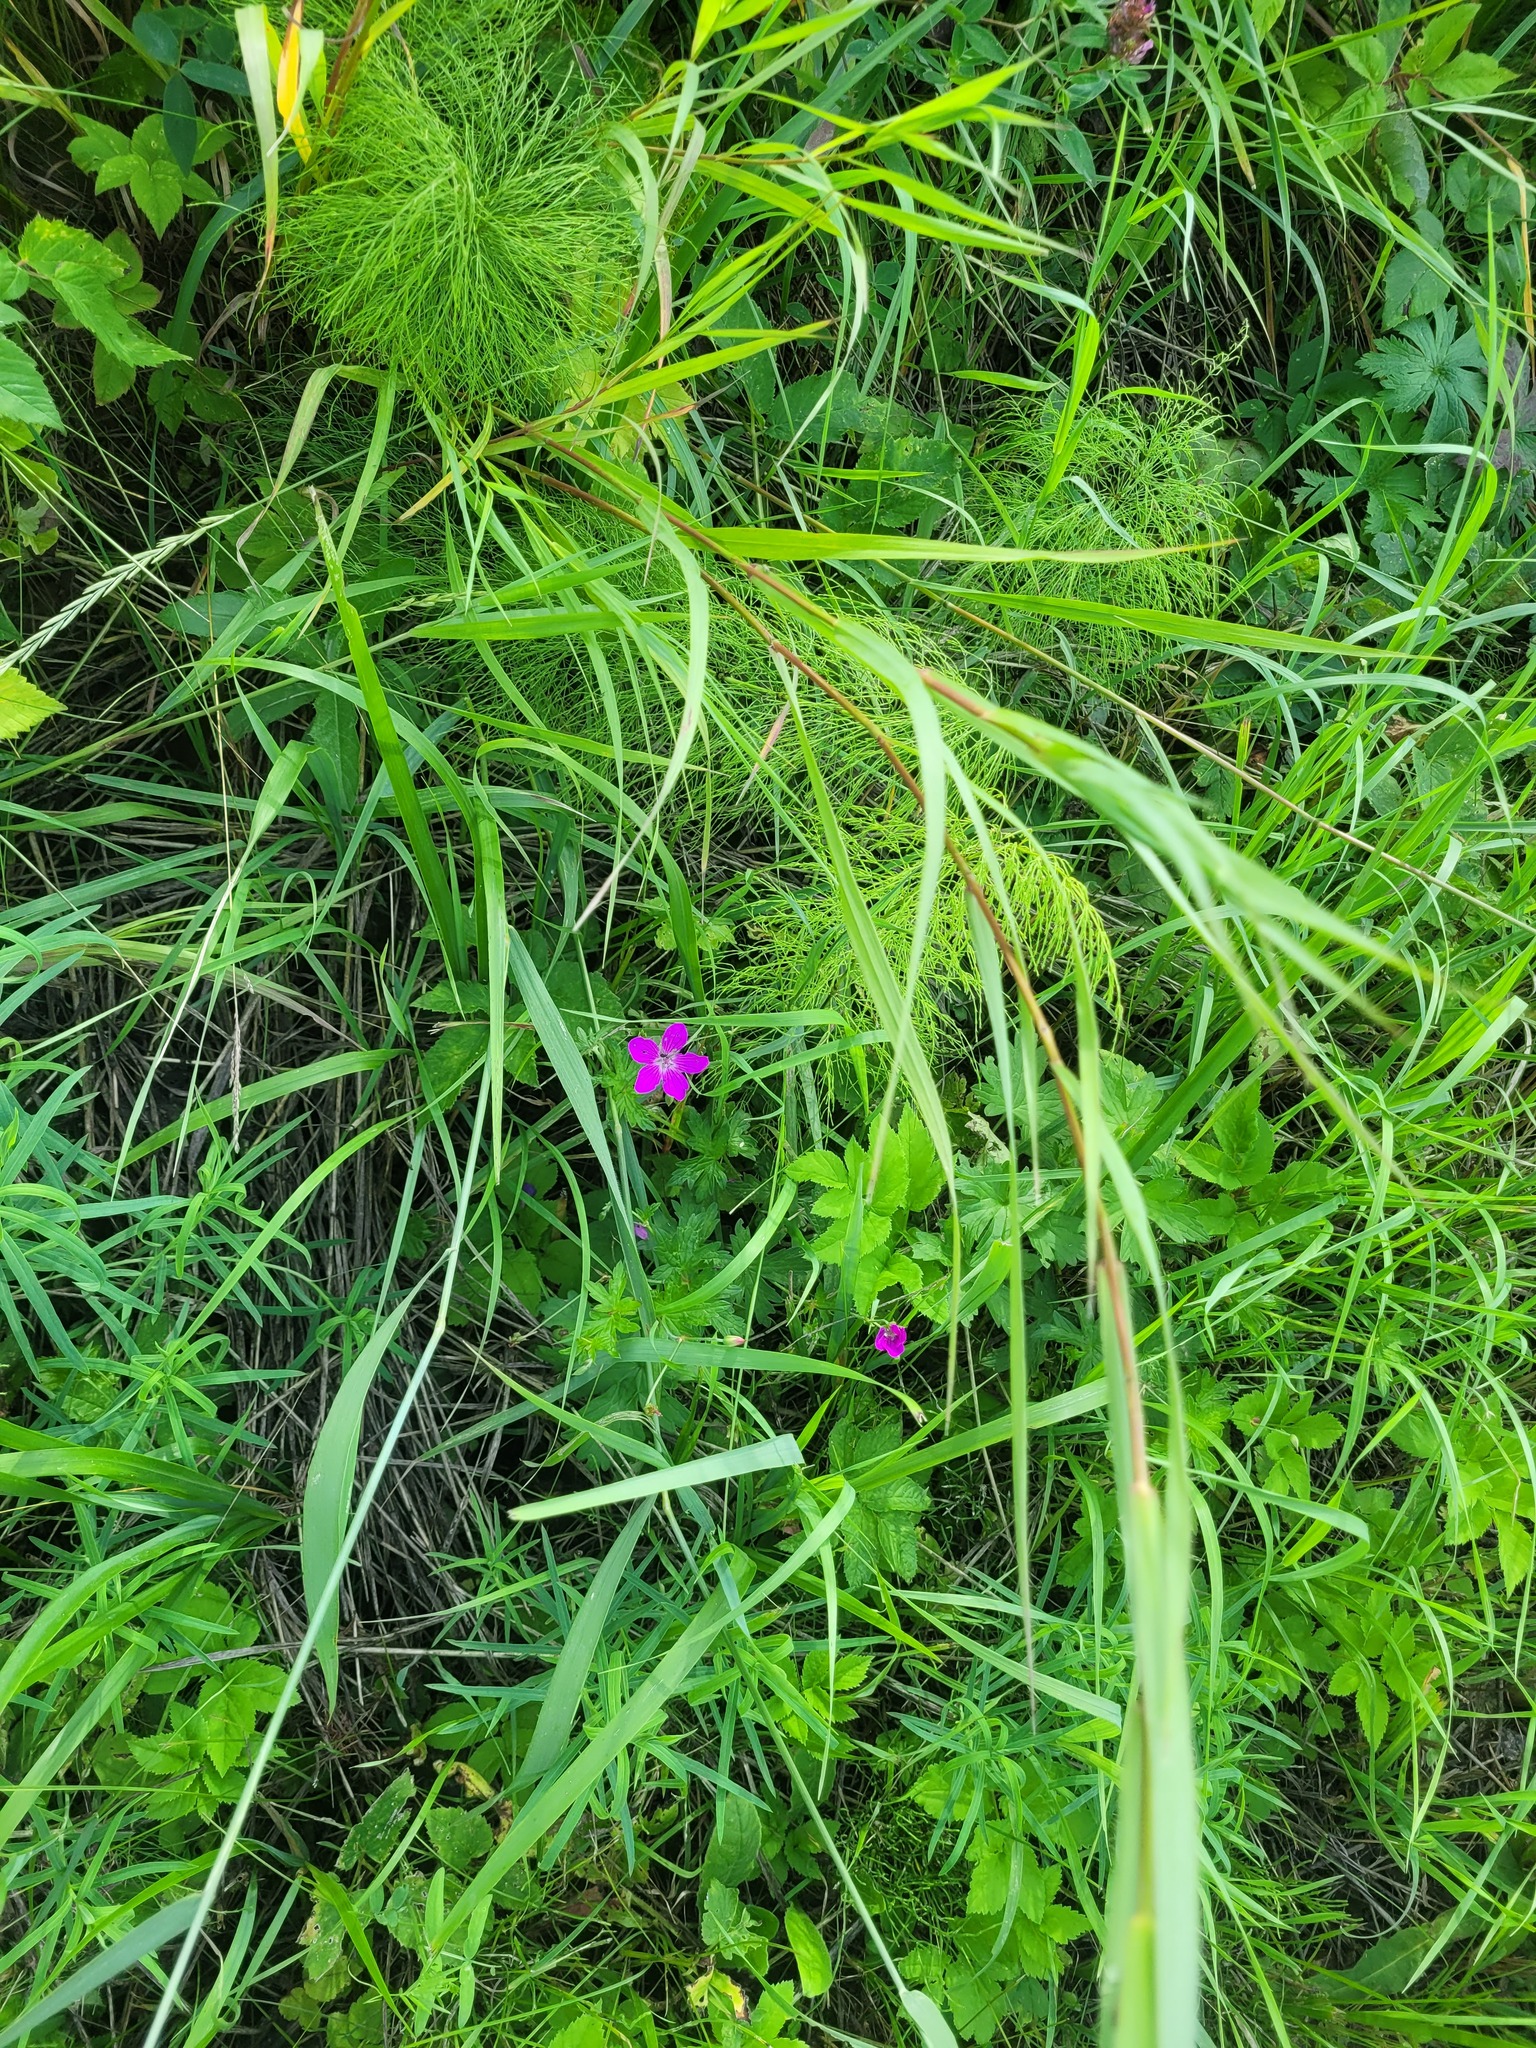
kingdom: Plantae
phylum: Tracheophyta
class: Magnoliopsida
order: Geraniales
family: Geraniaceae
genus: Geranium
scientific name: Geranium palustre
